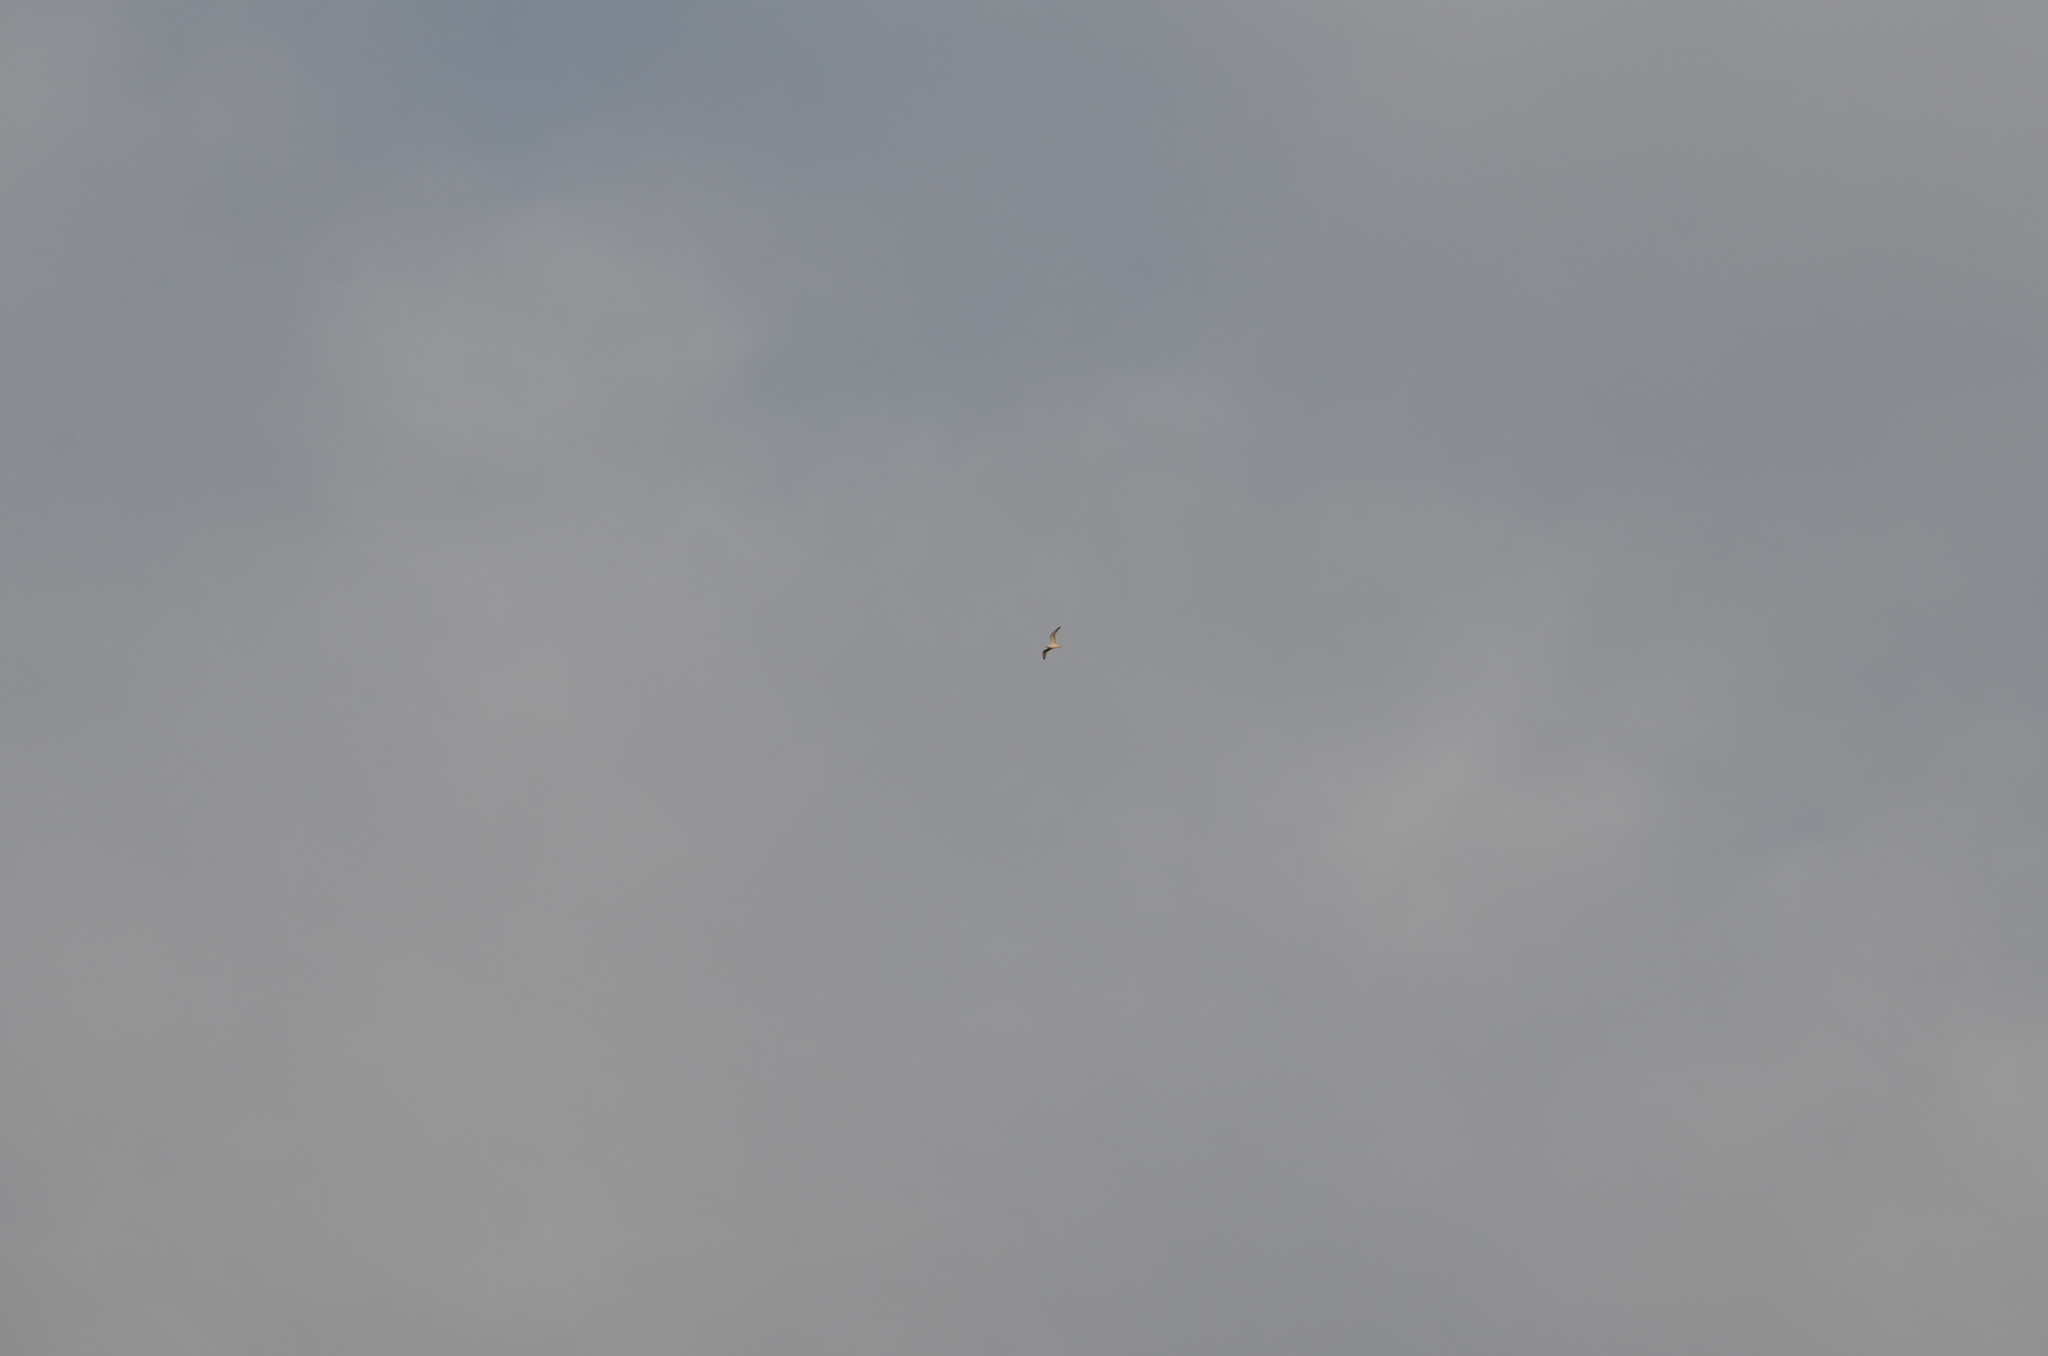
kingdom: Animalia
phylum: Chordata
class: Aves
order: Charadriiformes
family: Laridae
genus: Larus
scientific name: Larus cachinnans
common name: Caspian gull
